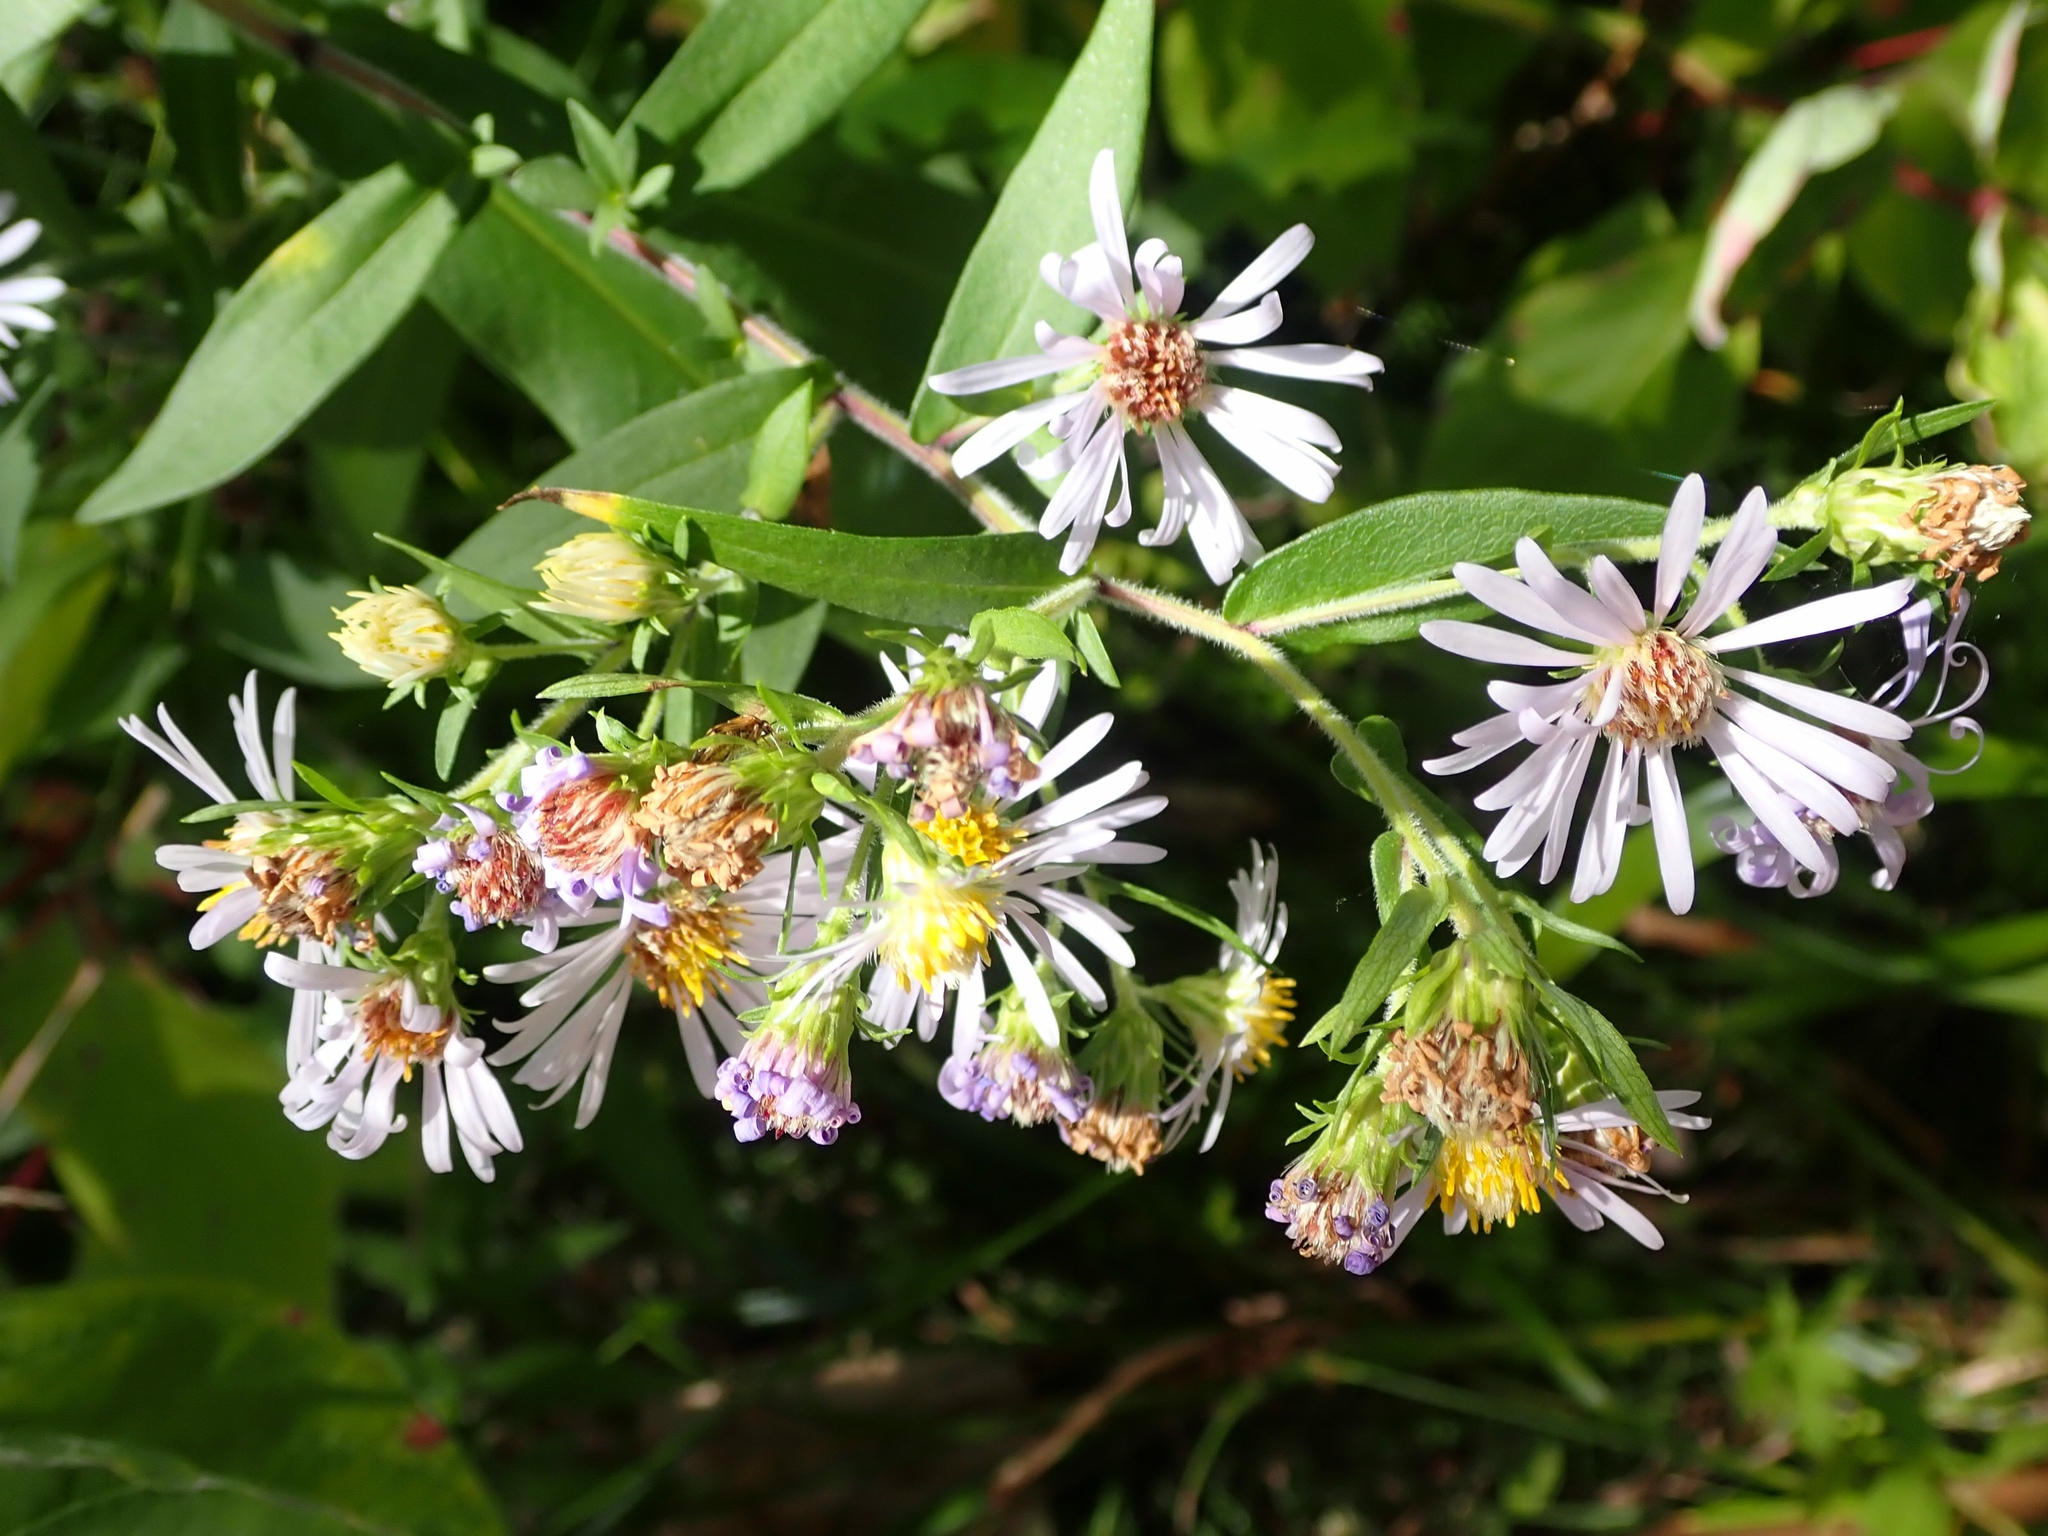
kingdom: Plantae
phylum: Tracheophyta
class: Magnoliopsida
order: Asterales
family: Asteraceae
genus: Symphyotrichum
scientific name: Symphyotrichum puniceum
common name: Bog aster
